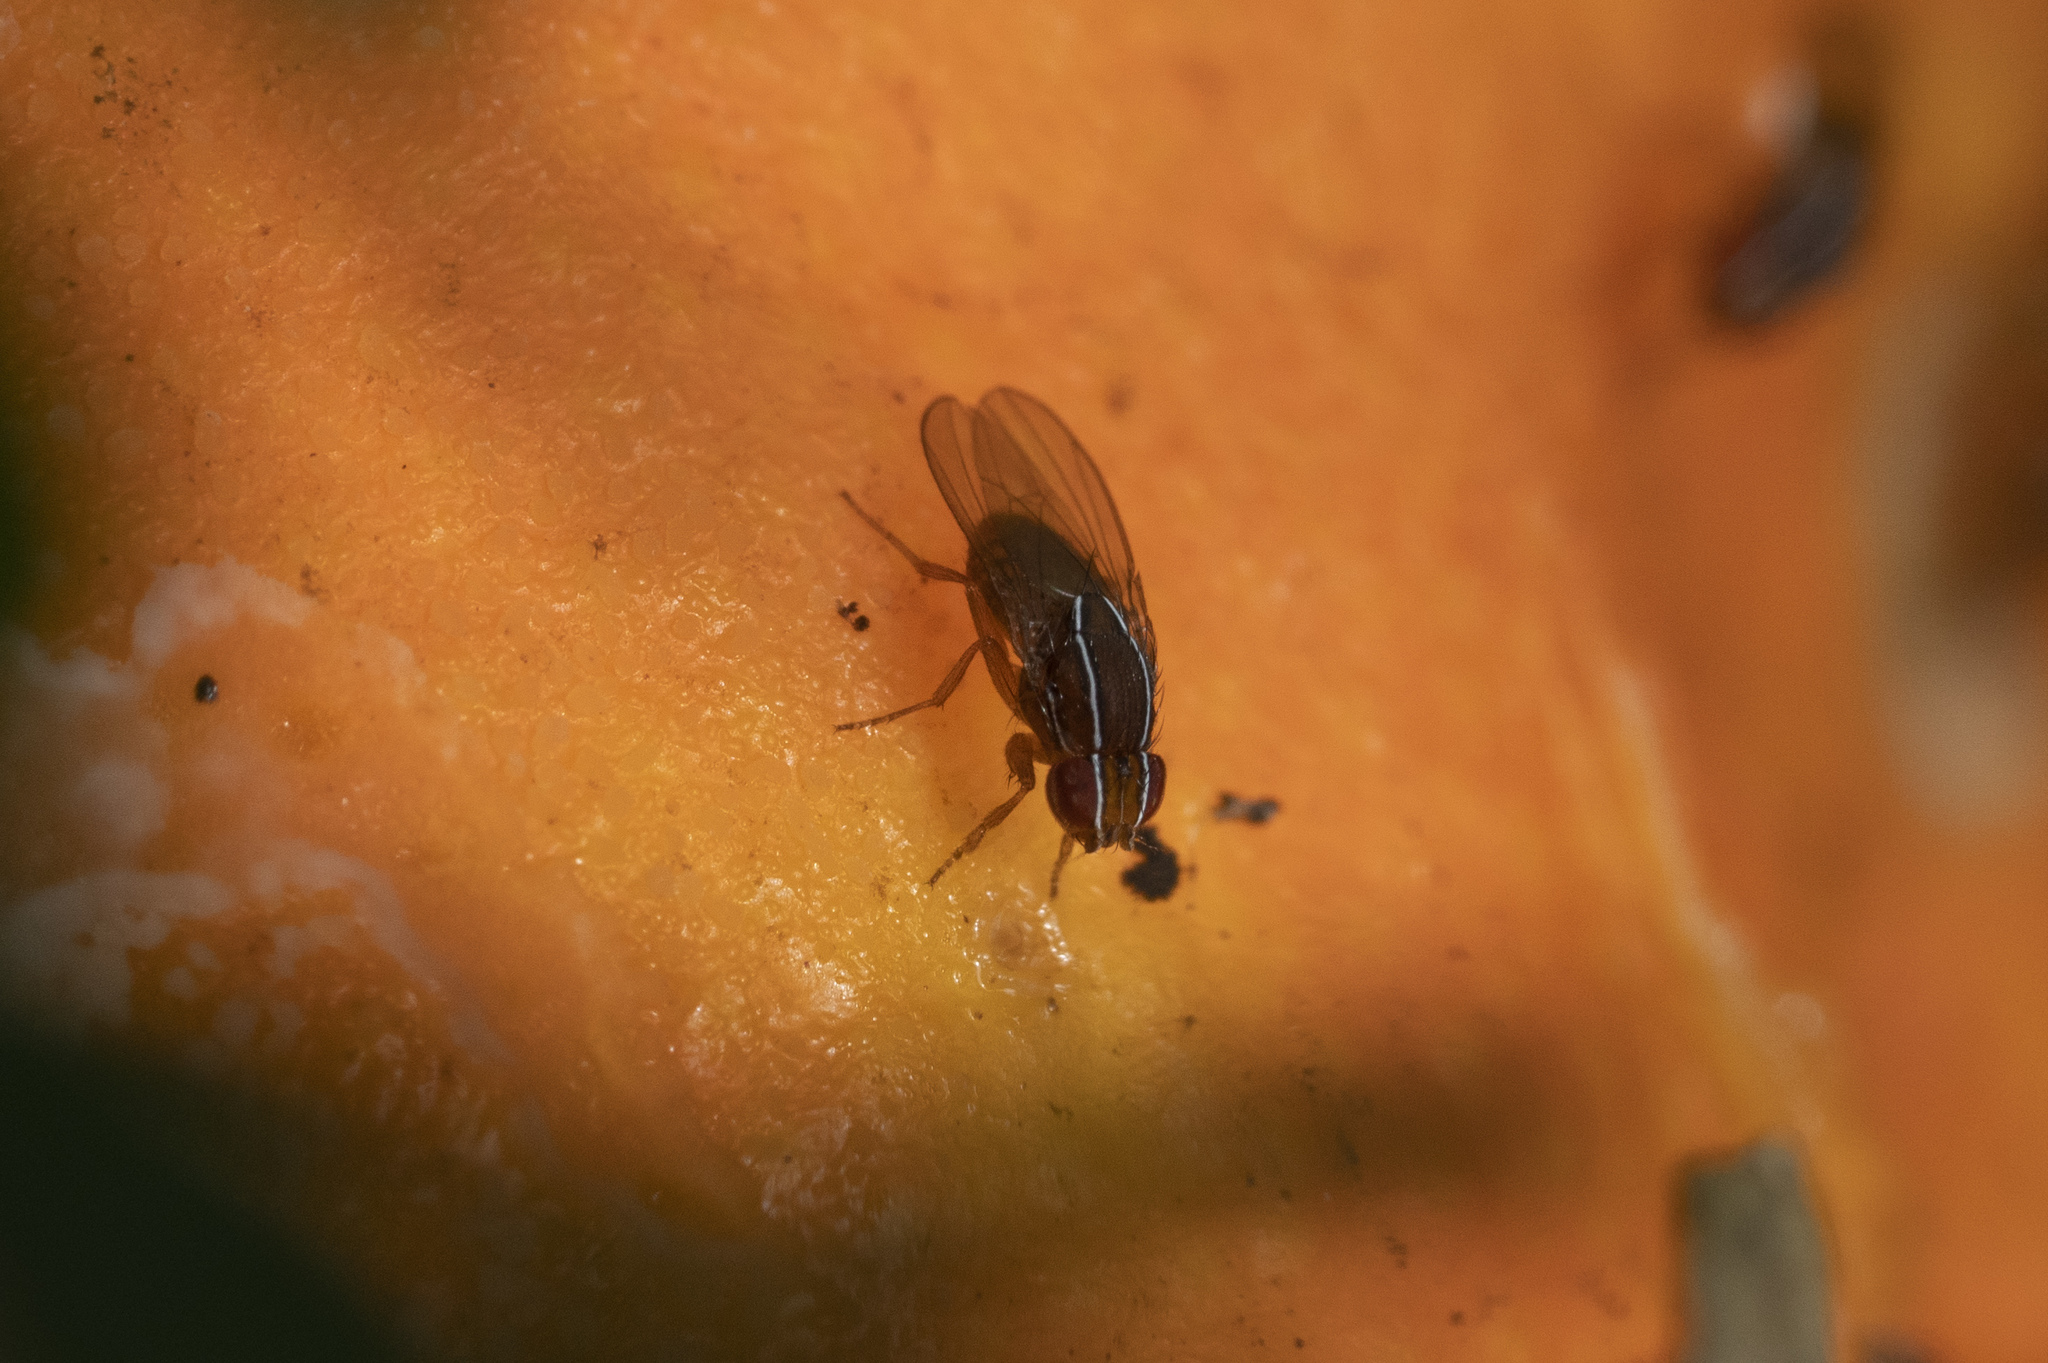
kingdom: Animalia
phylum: Arthropoda
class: Insecta
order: Diptera
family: Drosophilidae
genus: Zaprionus
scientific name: Zaprionus tuberculatus
